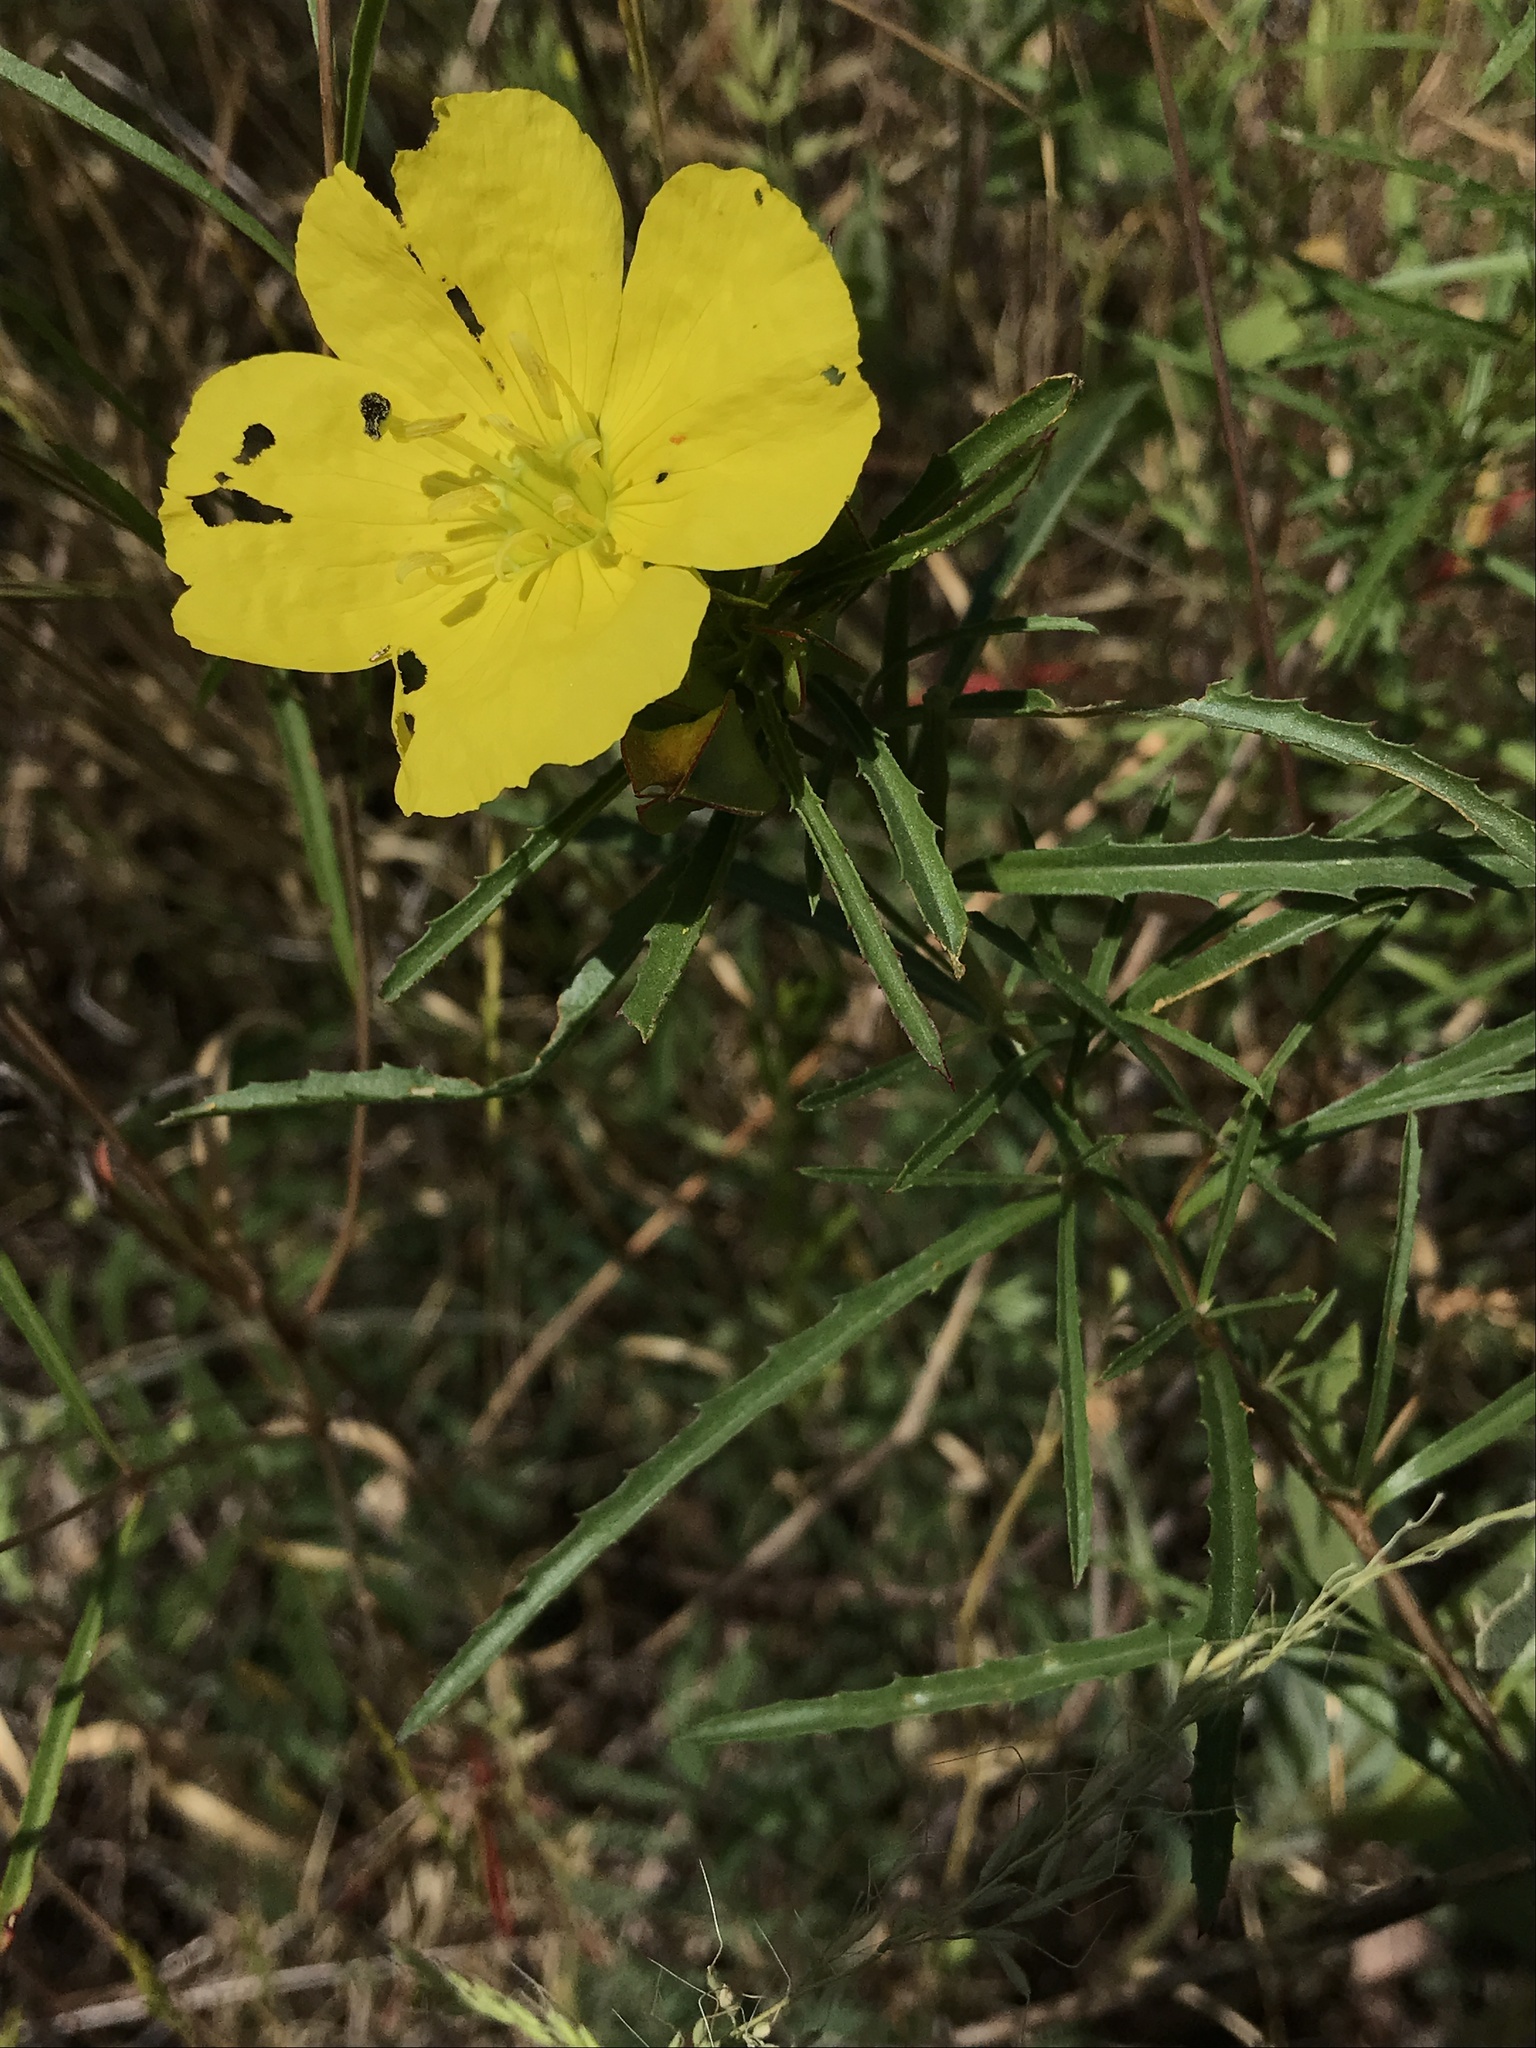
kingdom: Plantae
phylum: Tracheophyta
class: Magnoliopsida
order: Myrtales
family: Onagraceae
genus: Oenothera
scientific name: Oenothera
